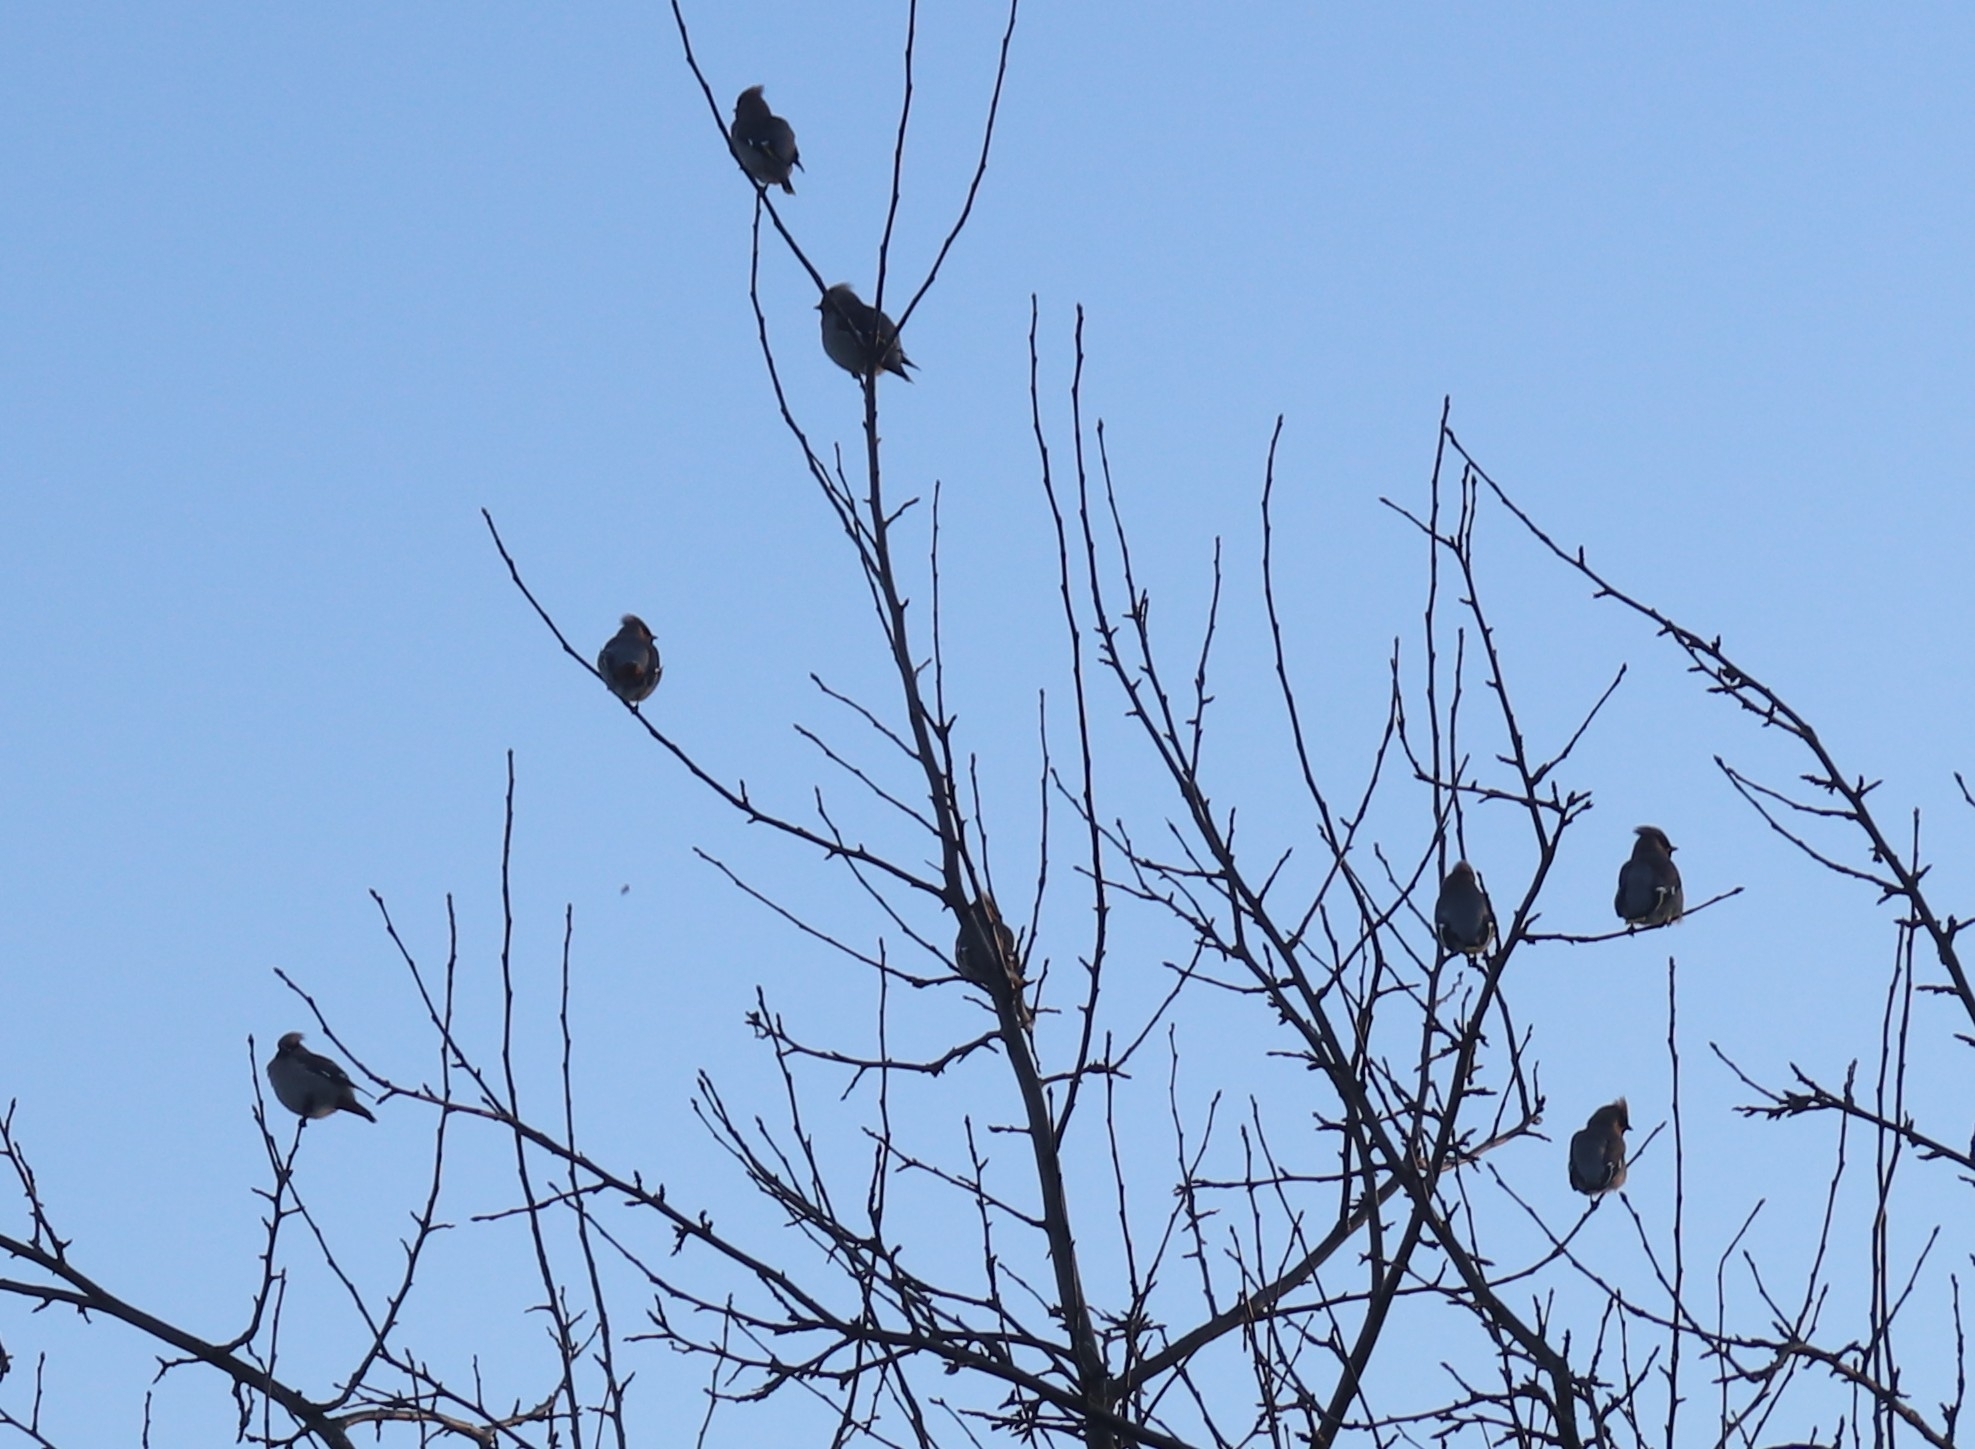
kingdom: Animalia
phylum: Chordata
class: Aves
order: Passeriformes
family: Bombycillidae
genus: Bombycilla
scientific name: Bombycilla garrulus
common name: Bohemian waxwing
